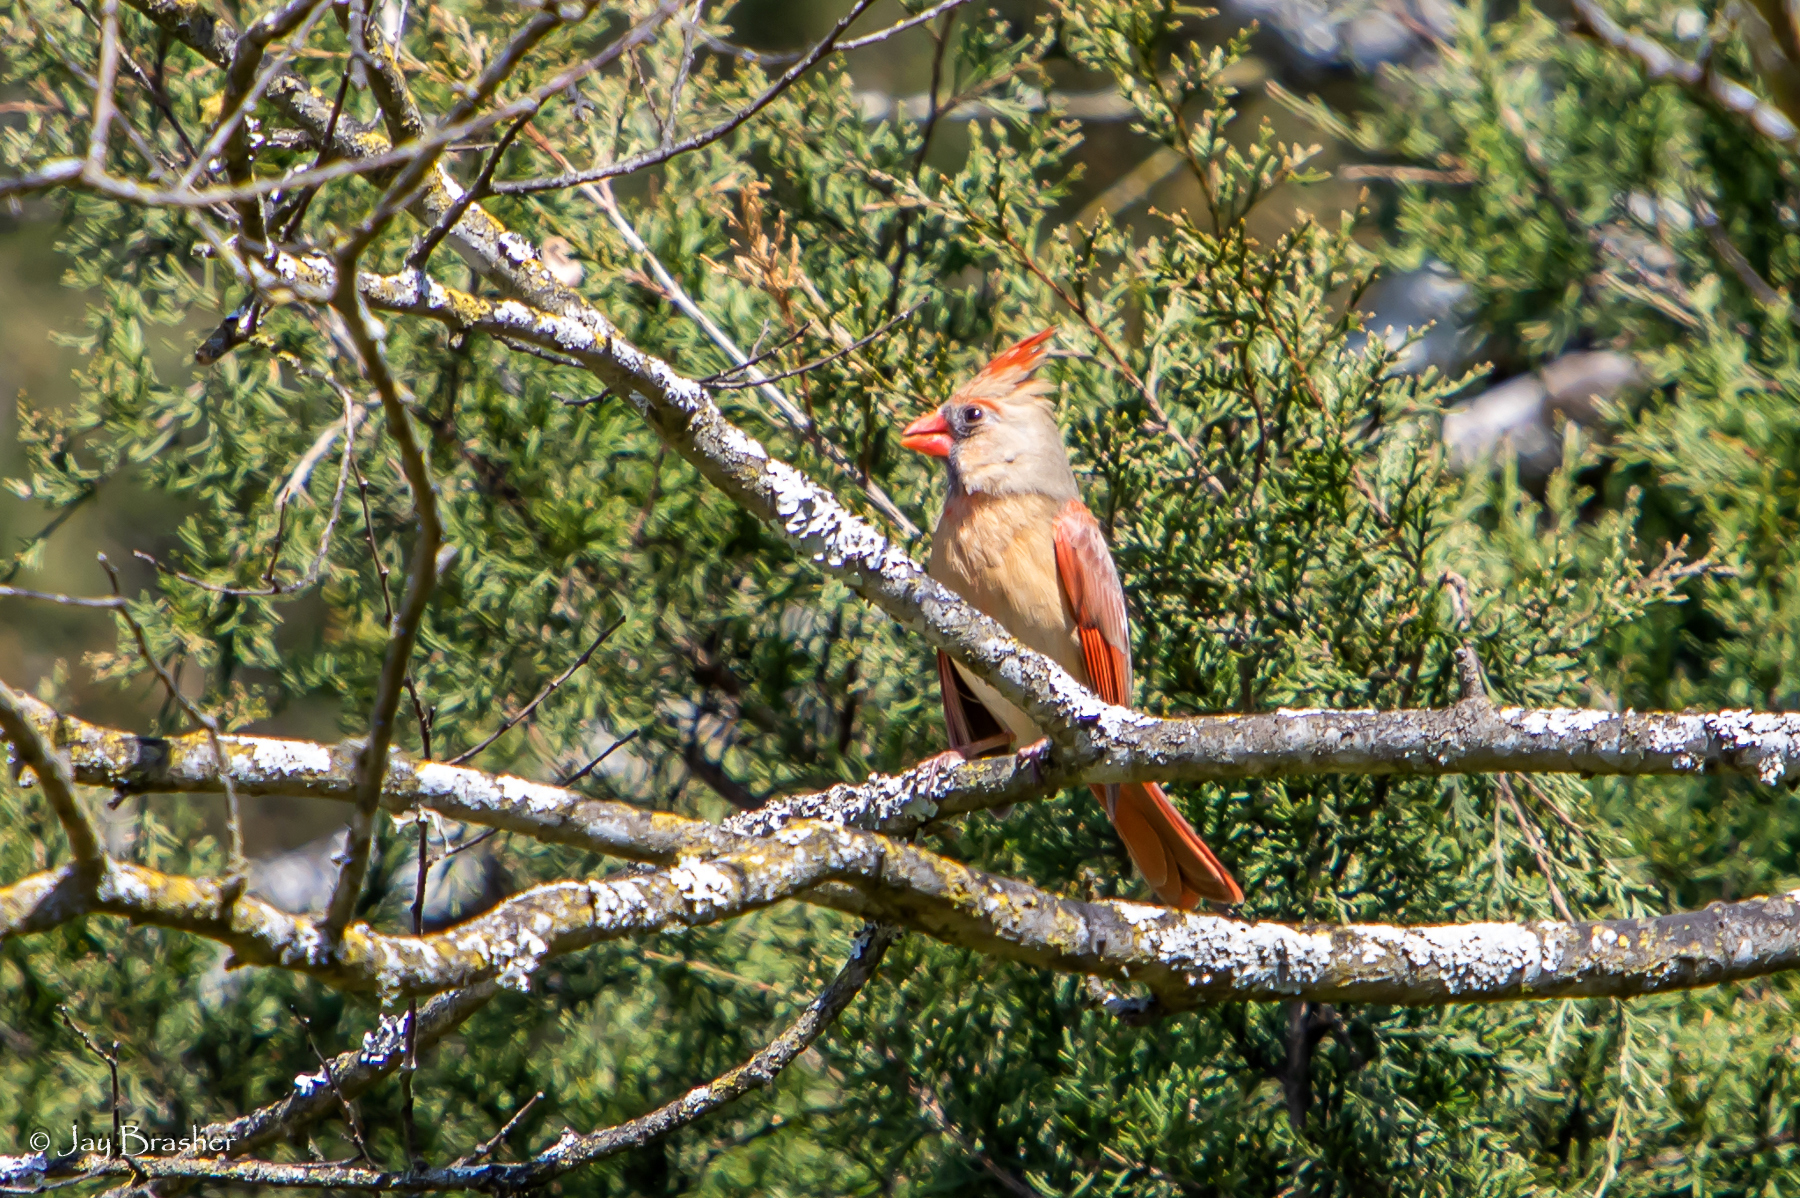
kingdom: Animalia
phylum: Chordata
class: Aves
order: Passeriformes
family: Cardinalidae
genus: Cardinalis
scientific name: Cardinalis cardinalis
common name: Northern cardinal
